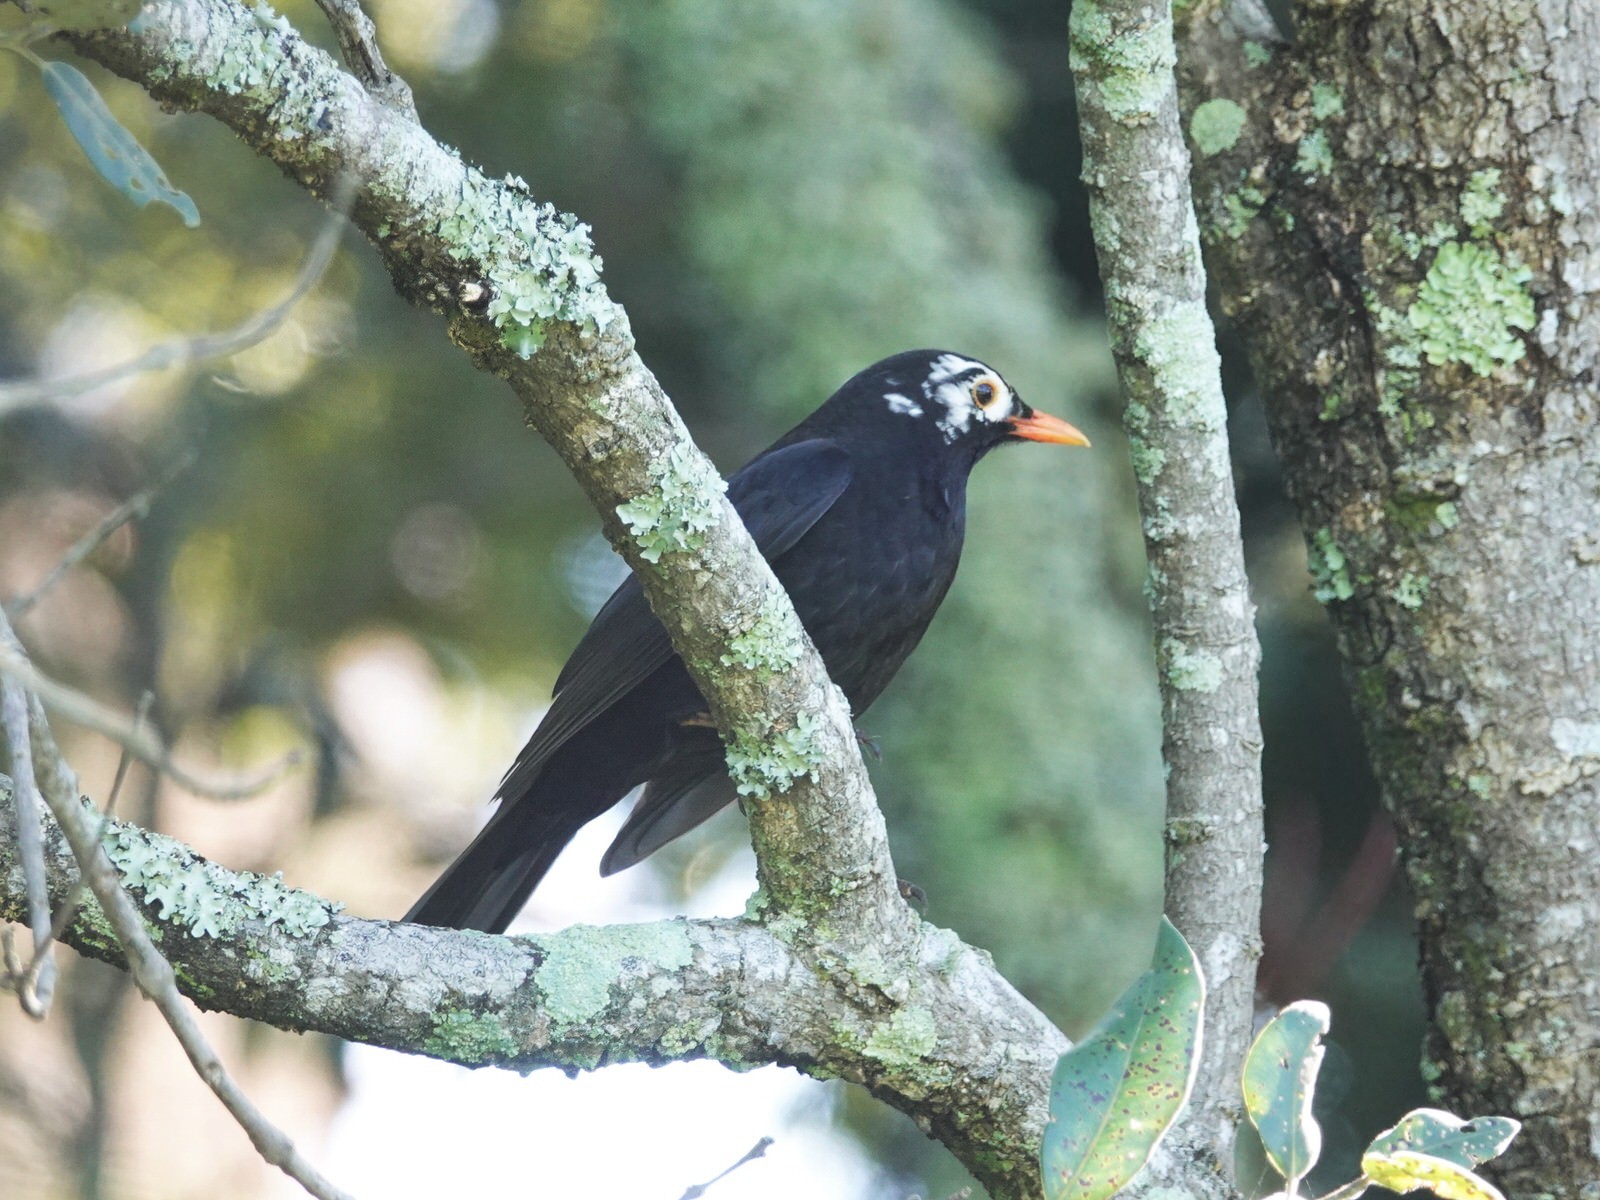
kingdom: Animalia
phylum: Chordata
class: Aves
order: Passeriformes
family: Turdidae
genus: Turdus
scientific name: Turdus merula
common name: Common blackbird
